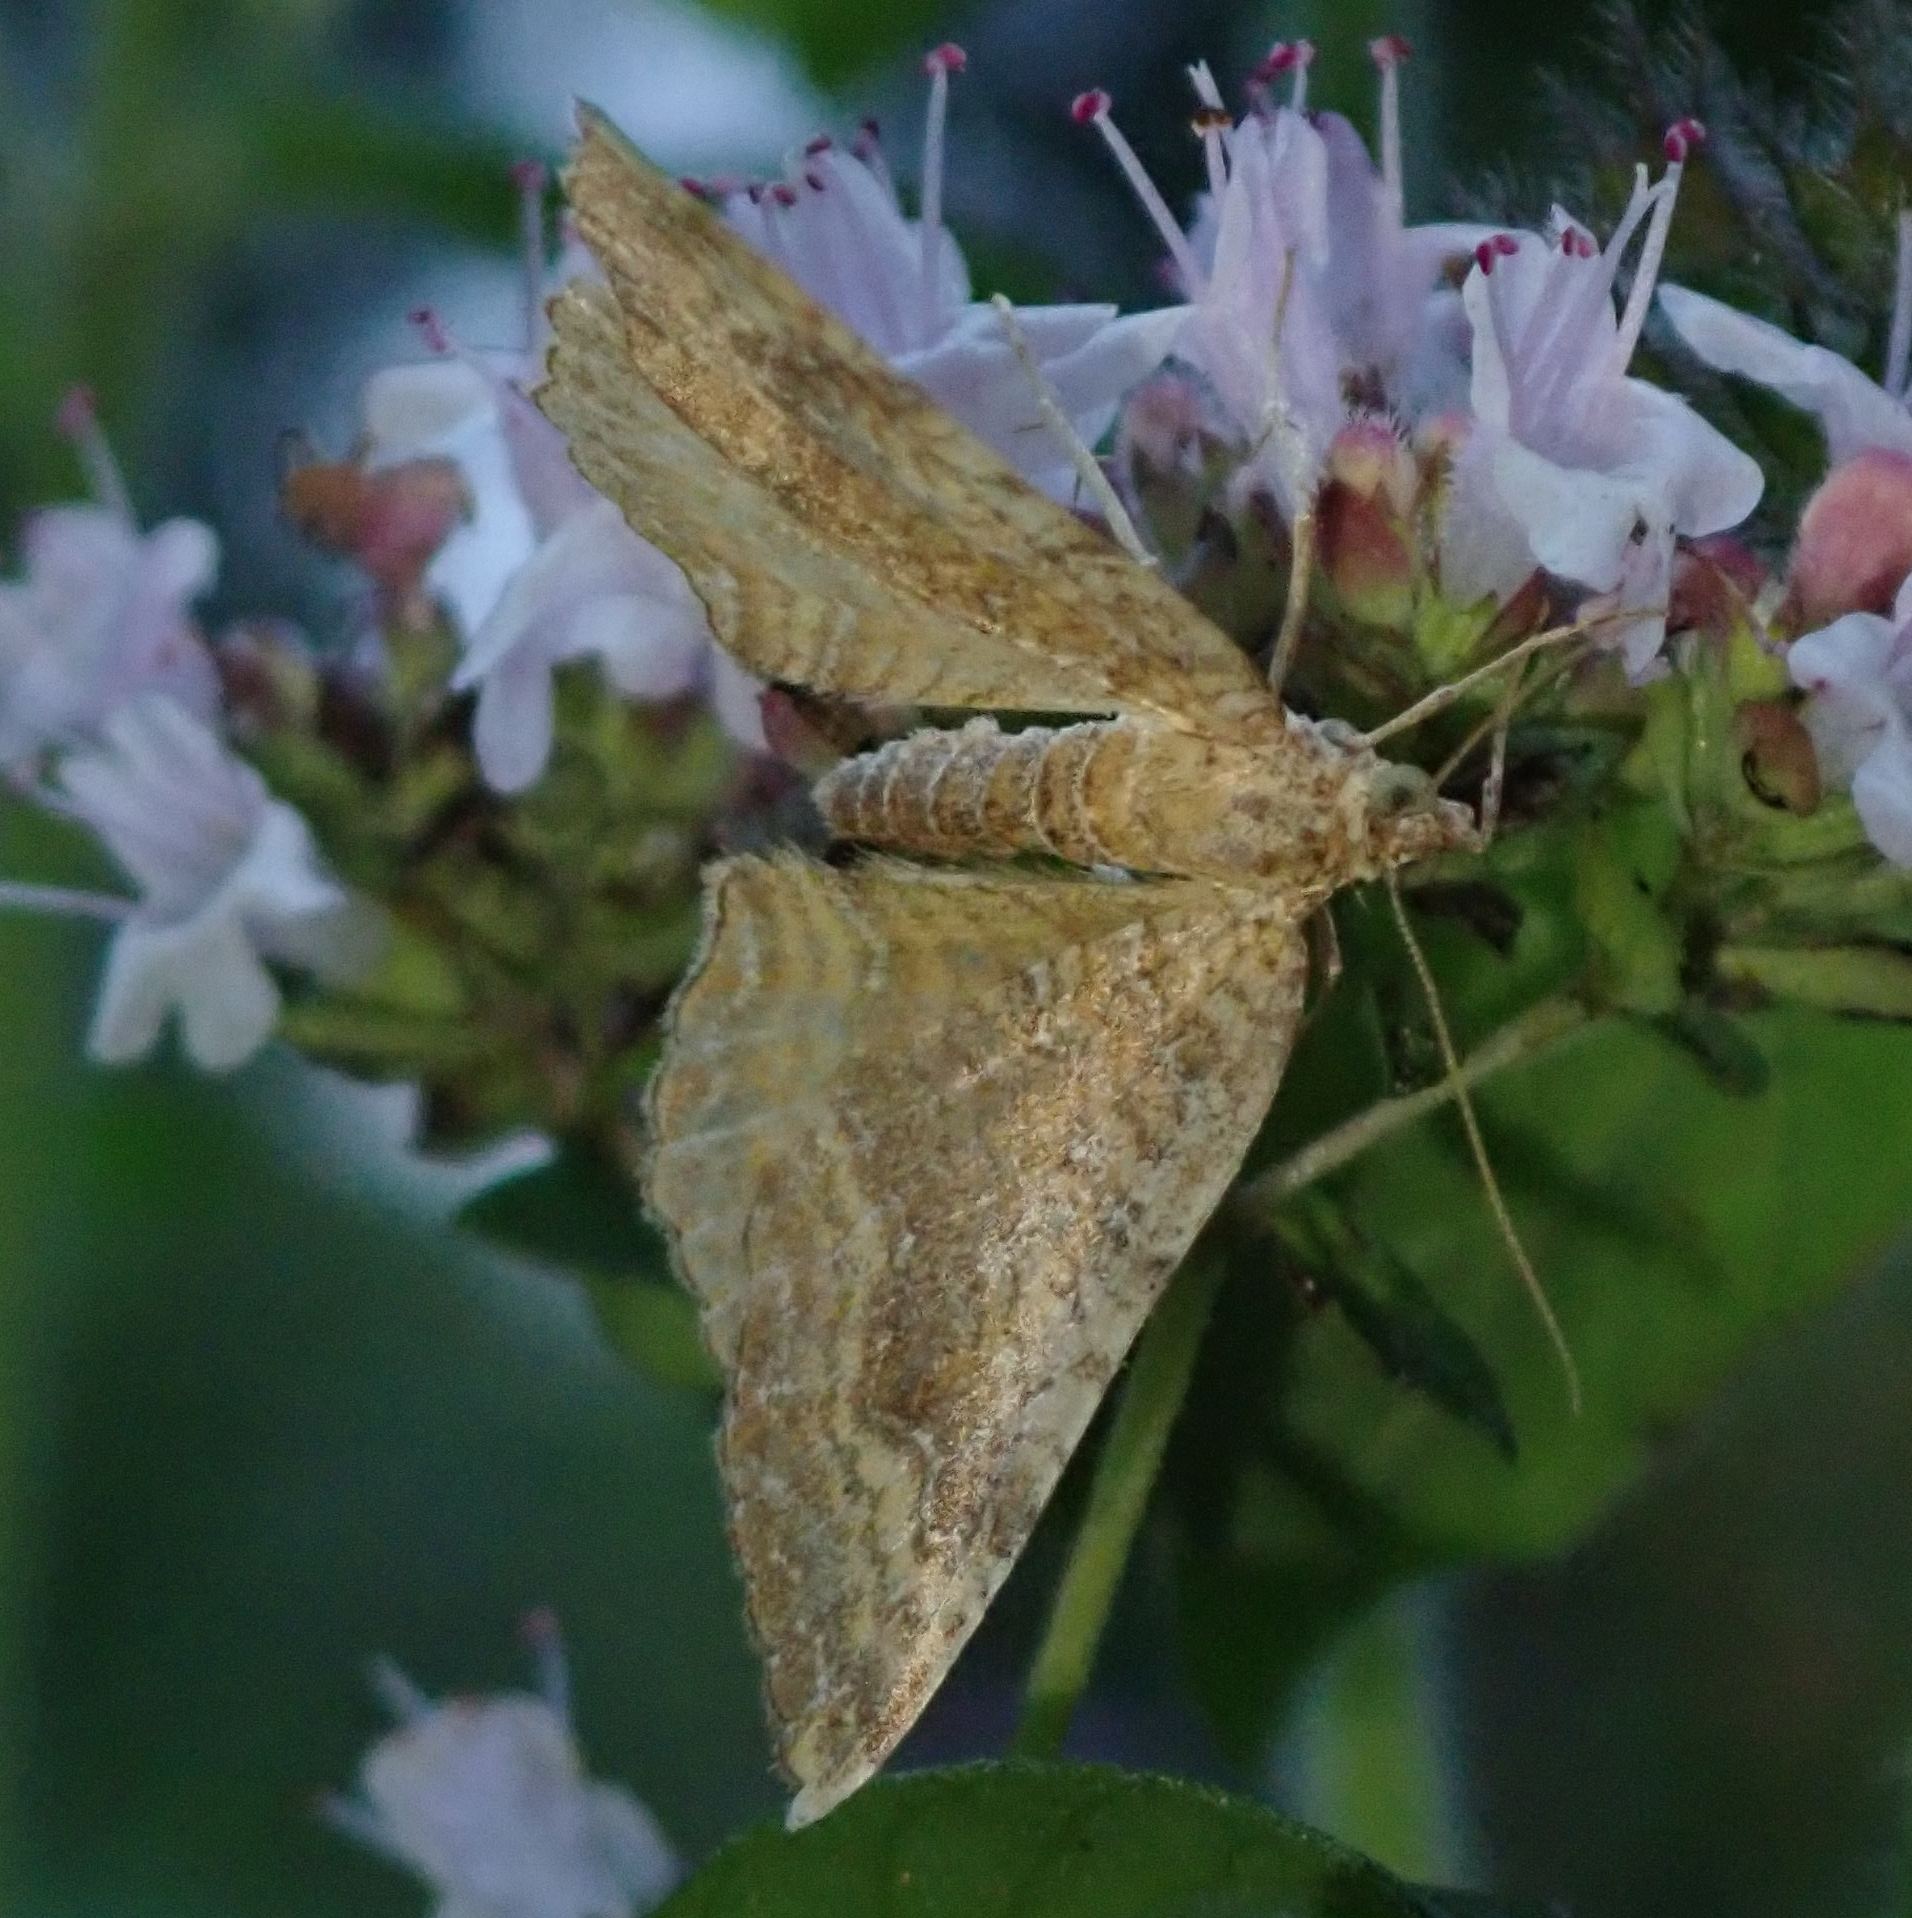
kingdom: Animalia
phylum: Arthropoda
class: Insecta
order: Lepidoptera
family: Geometridae
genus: Camptogramma
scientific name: Camptogramma bilineata
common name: Yellow shell
